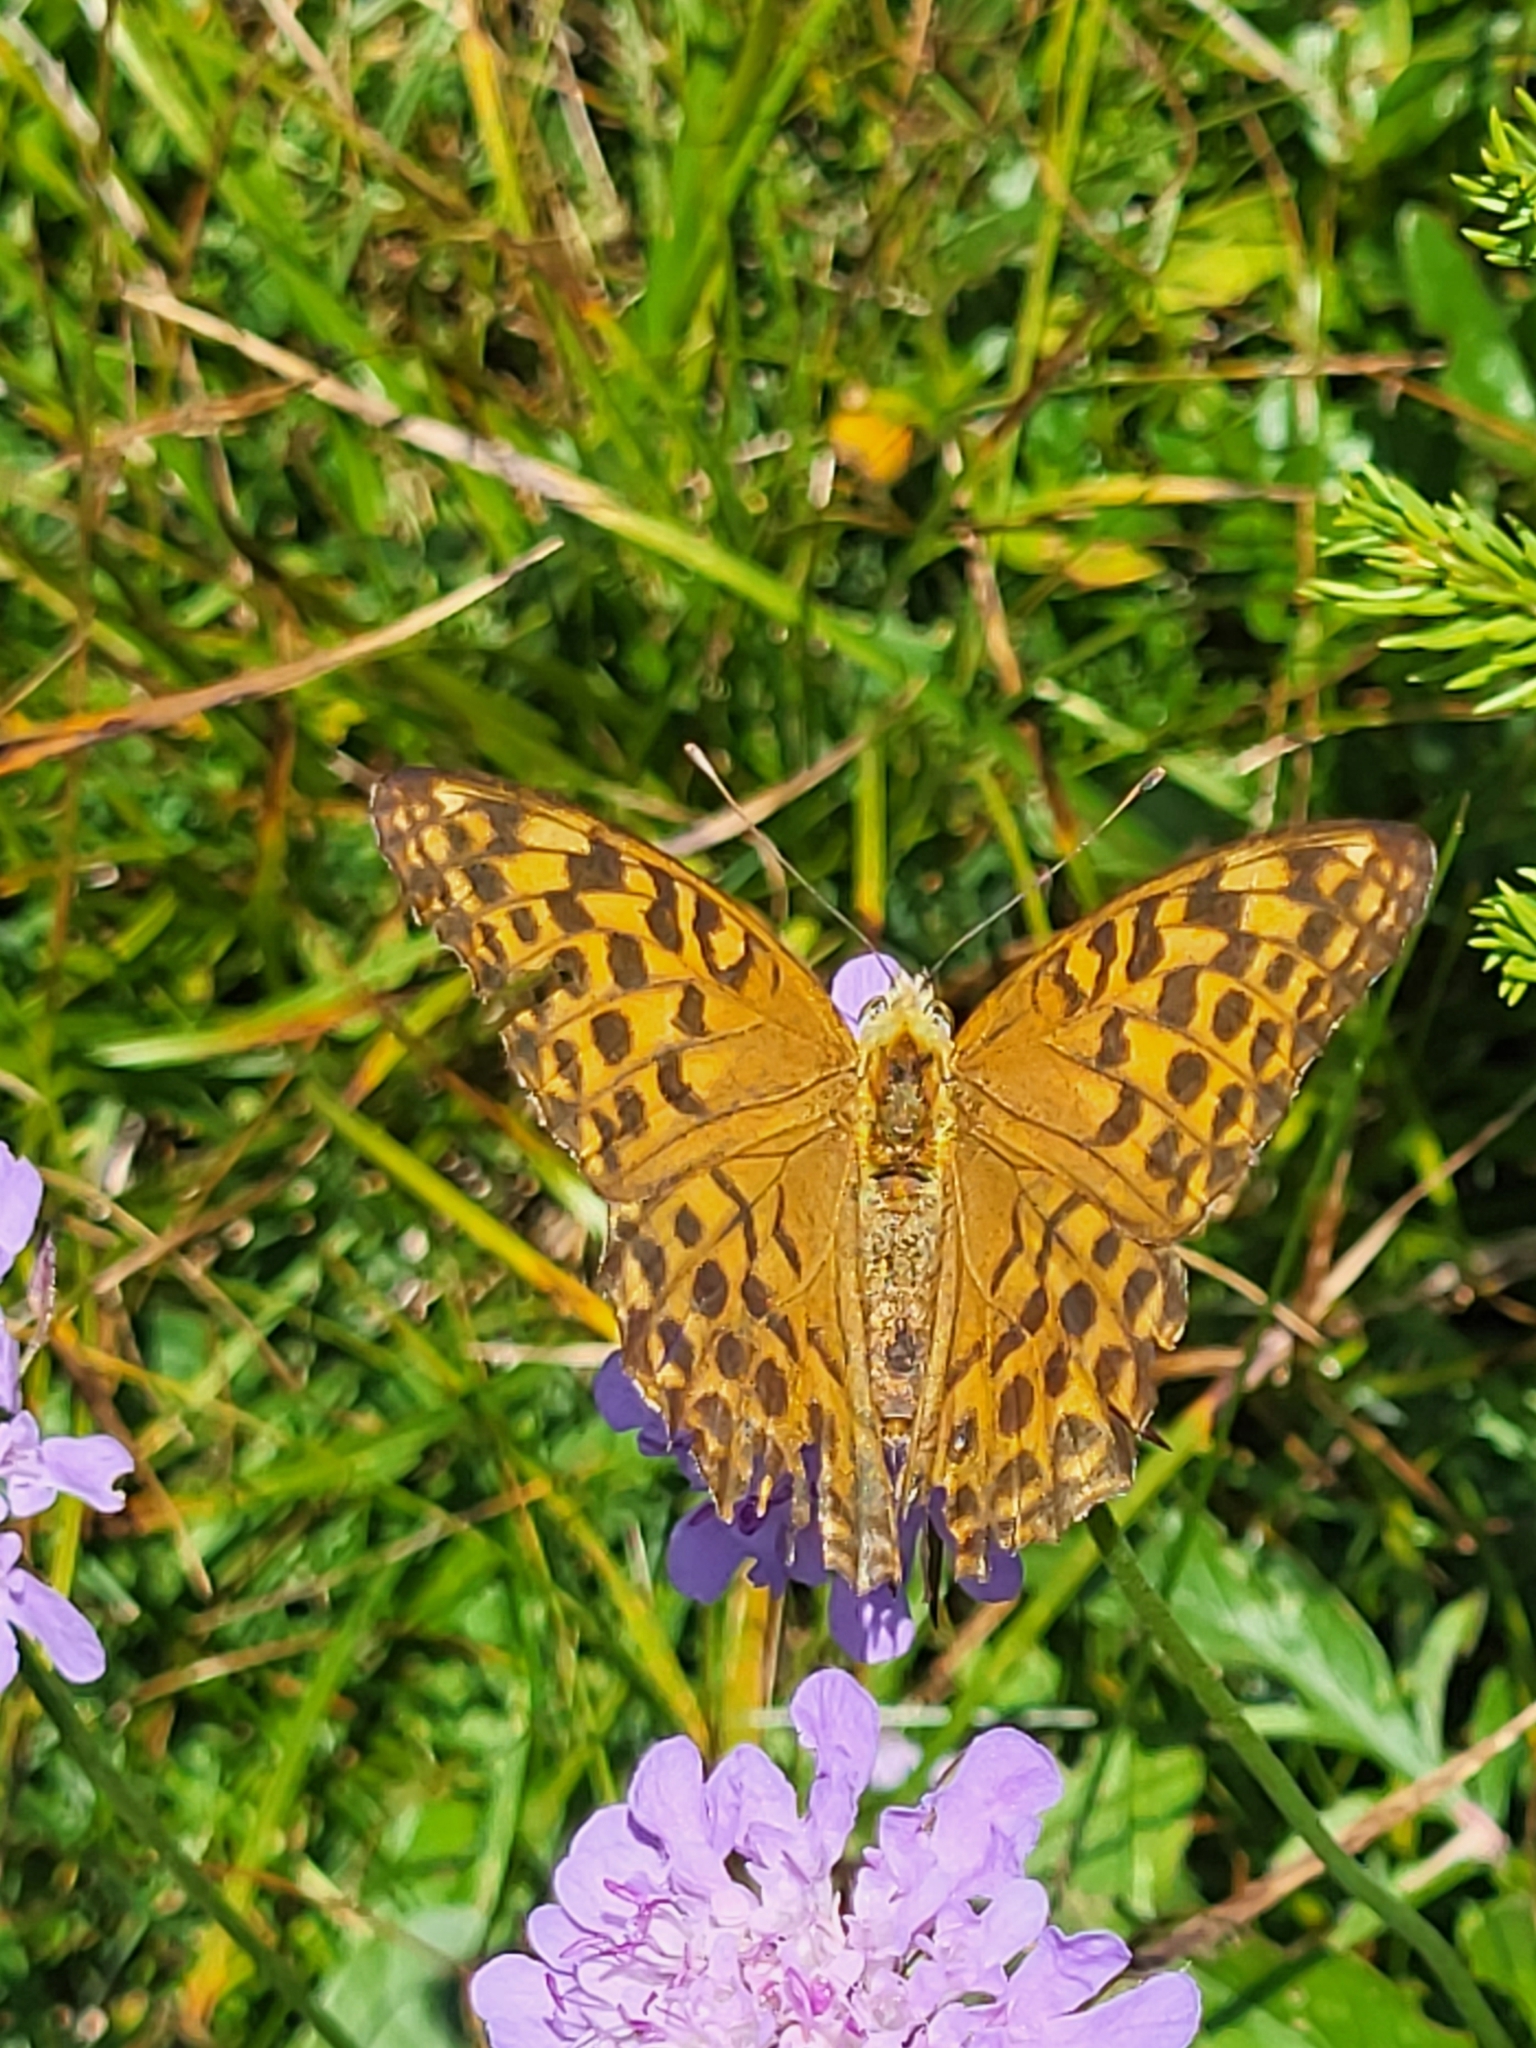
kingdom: Animalia
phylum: Arthropoda
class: Insecta
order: Lepidoptera
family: Nymphalidae
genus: Argynnis
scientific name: Argynnis paphia
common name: Silver-washed fritillary
